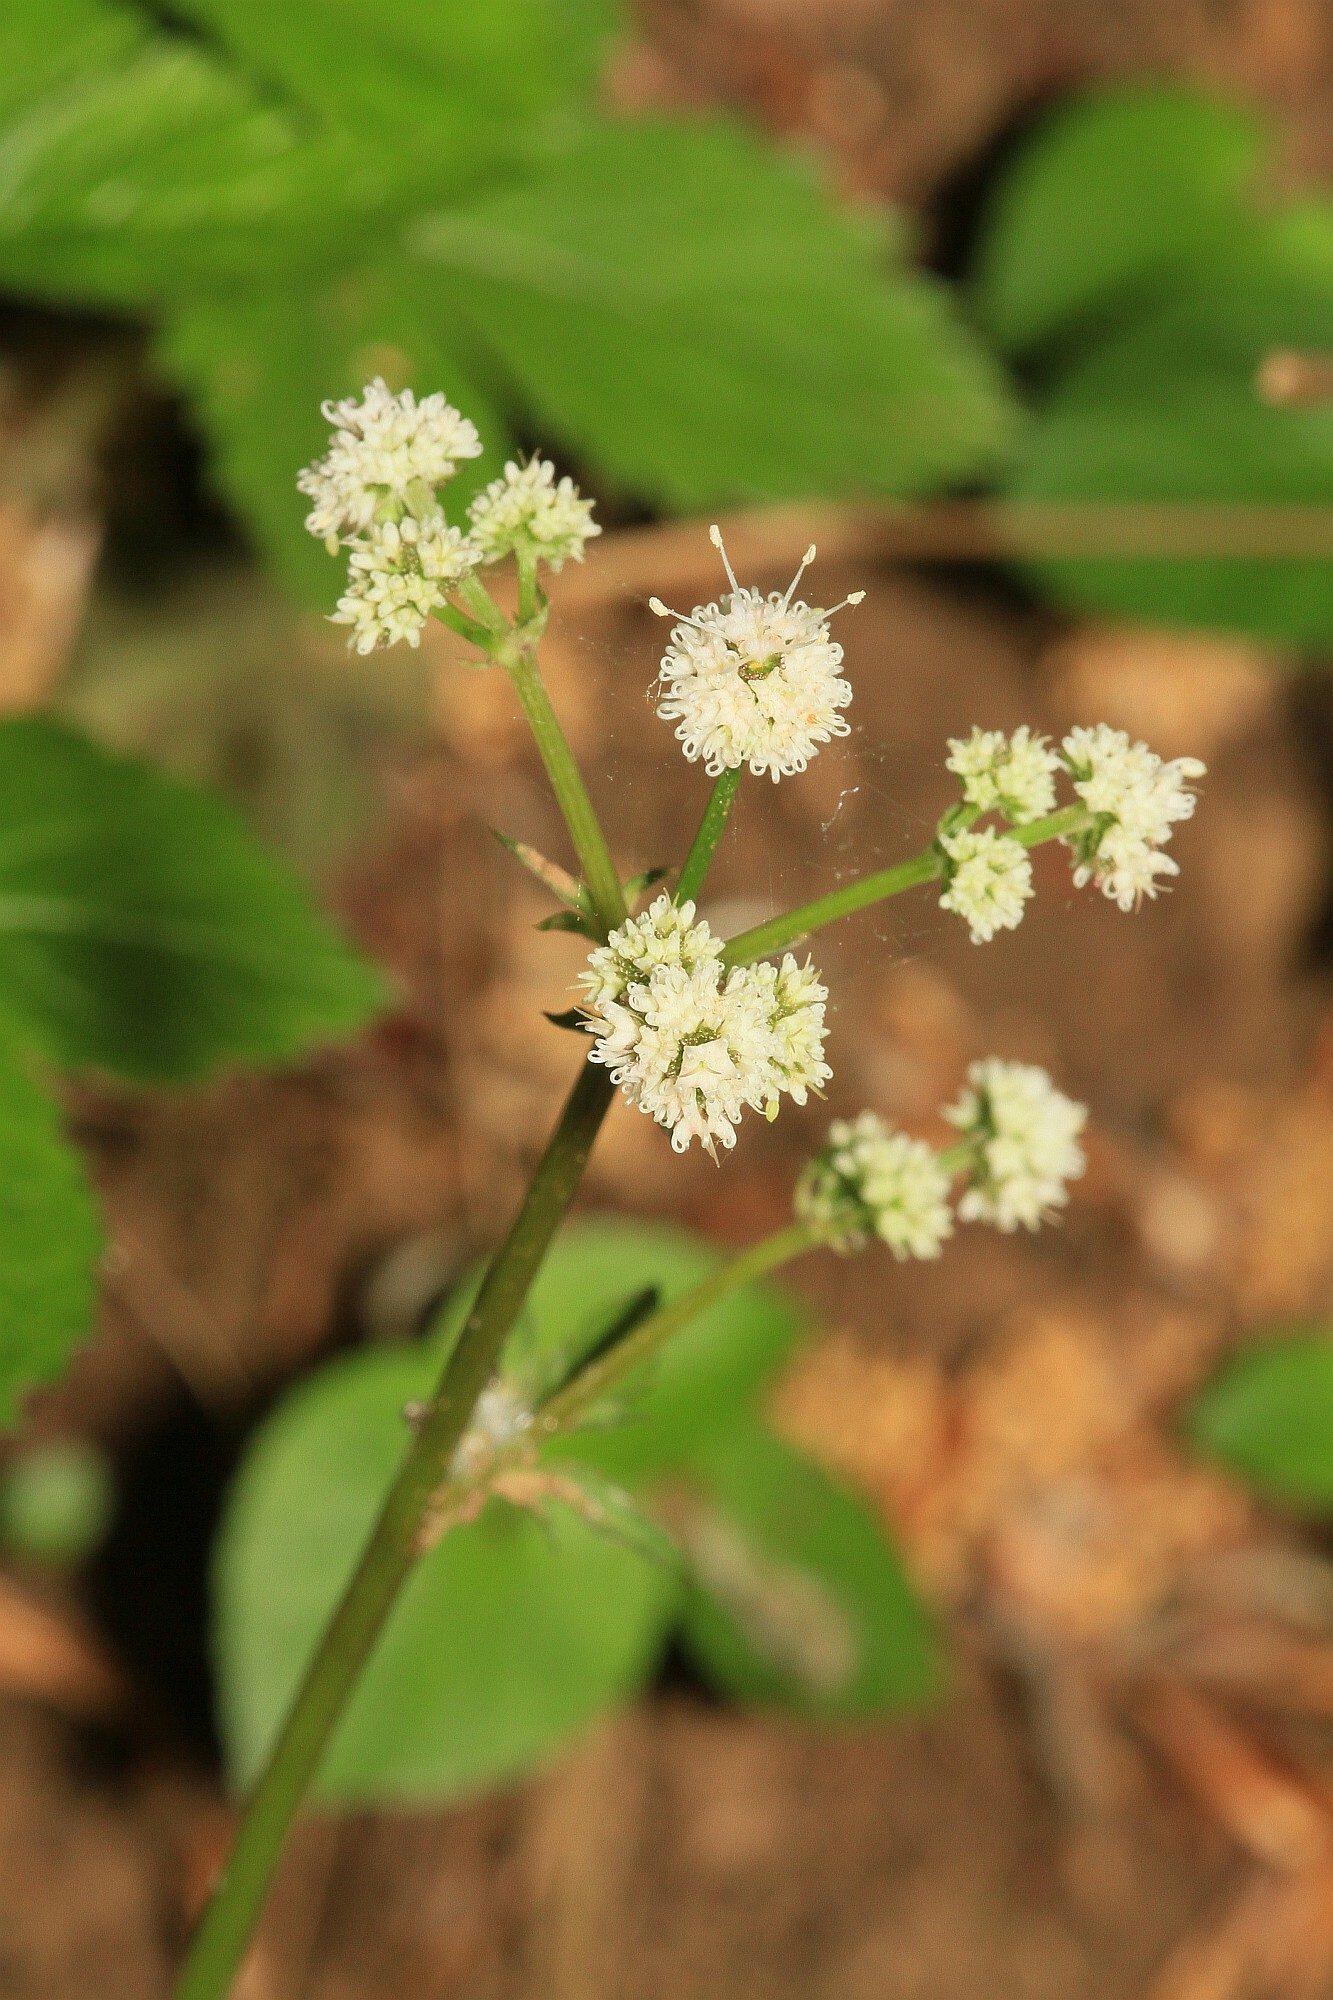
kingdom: Plantae
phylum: Tracheophyta
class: Magnoliopsida
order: Apiales
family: Apiaceae
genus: Sanicula
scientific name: Sanicula europaea
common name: Sanicle
